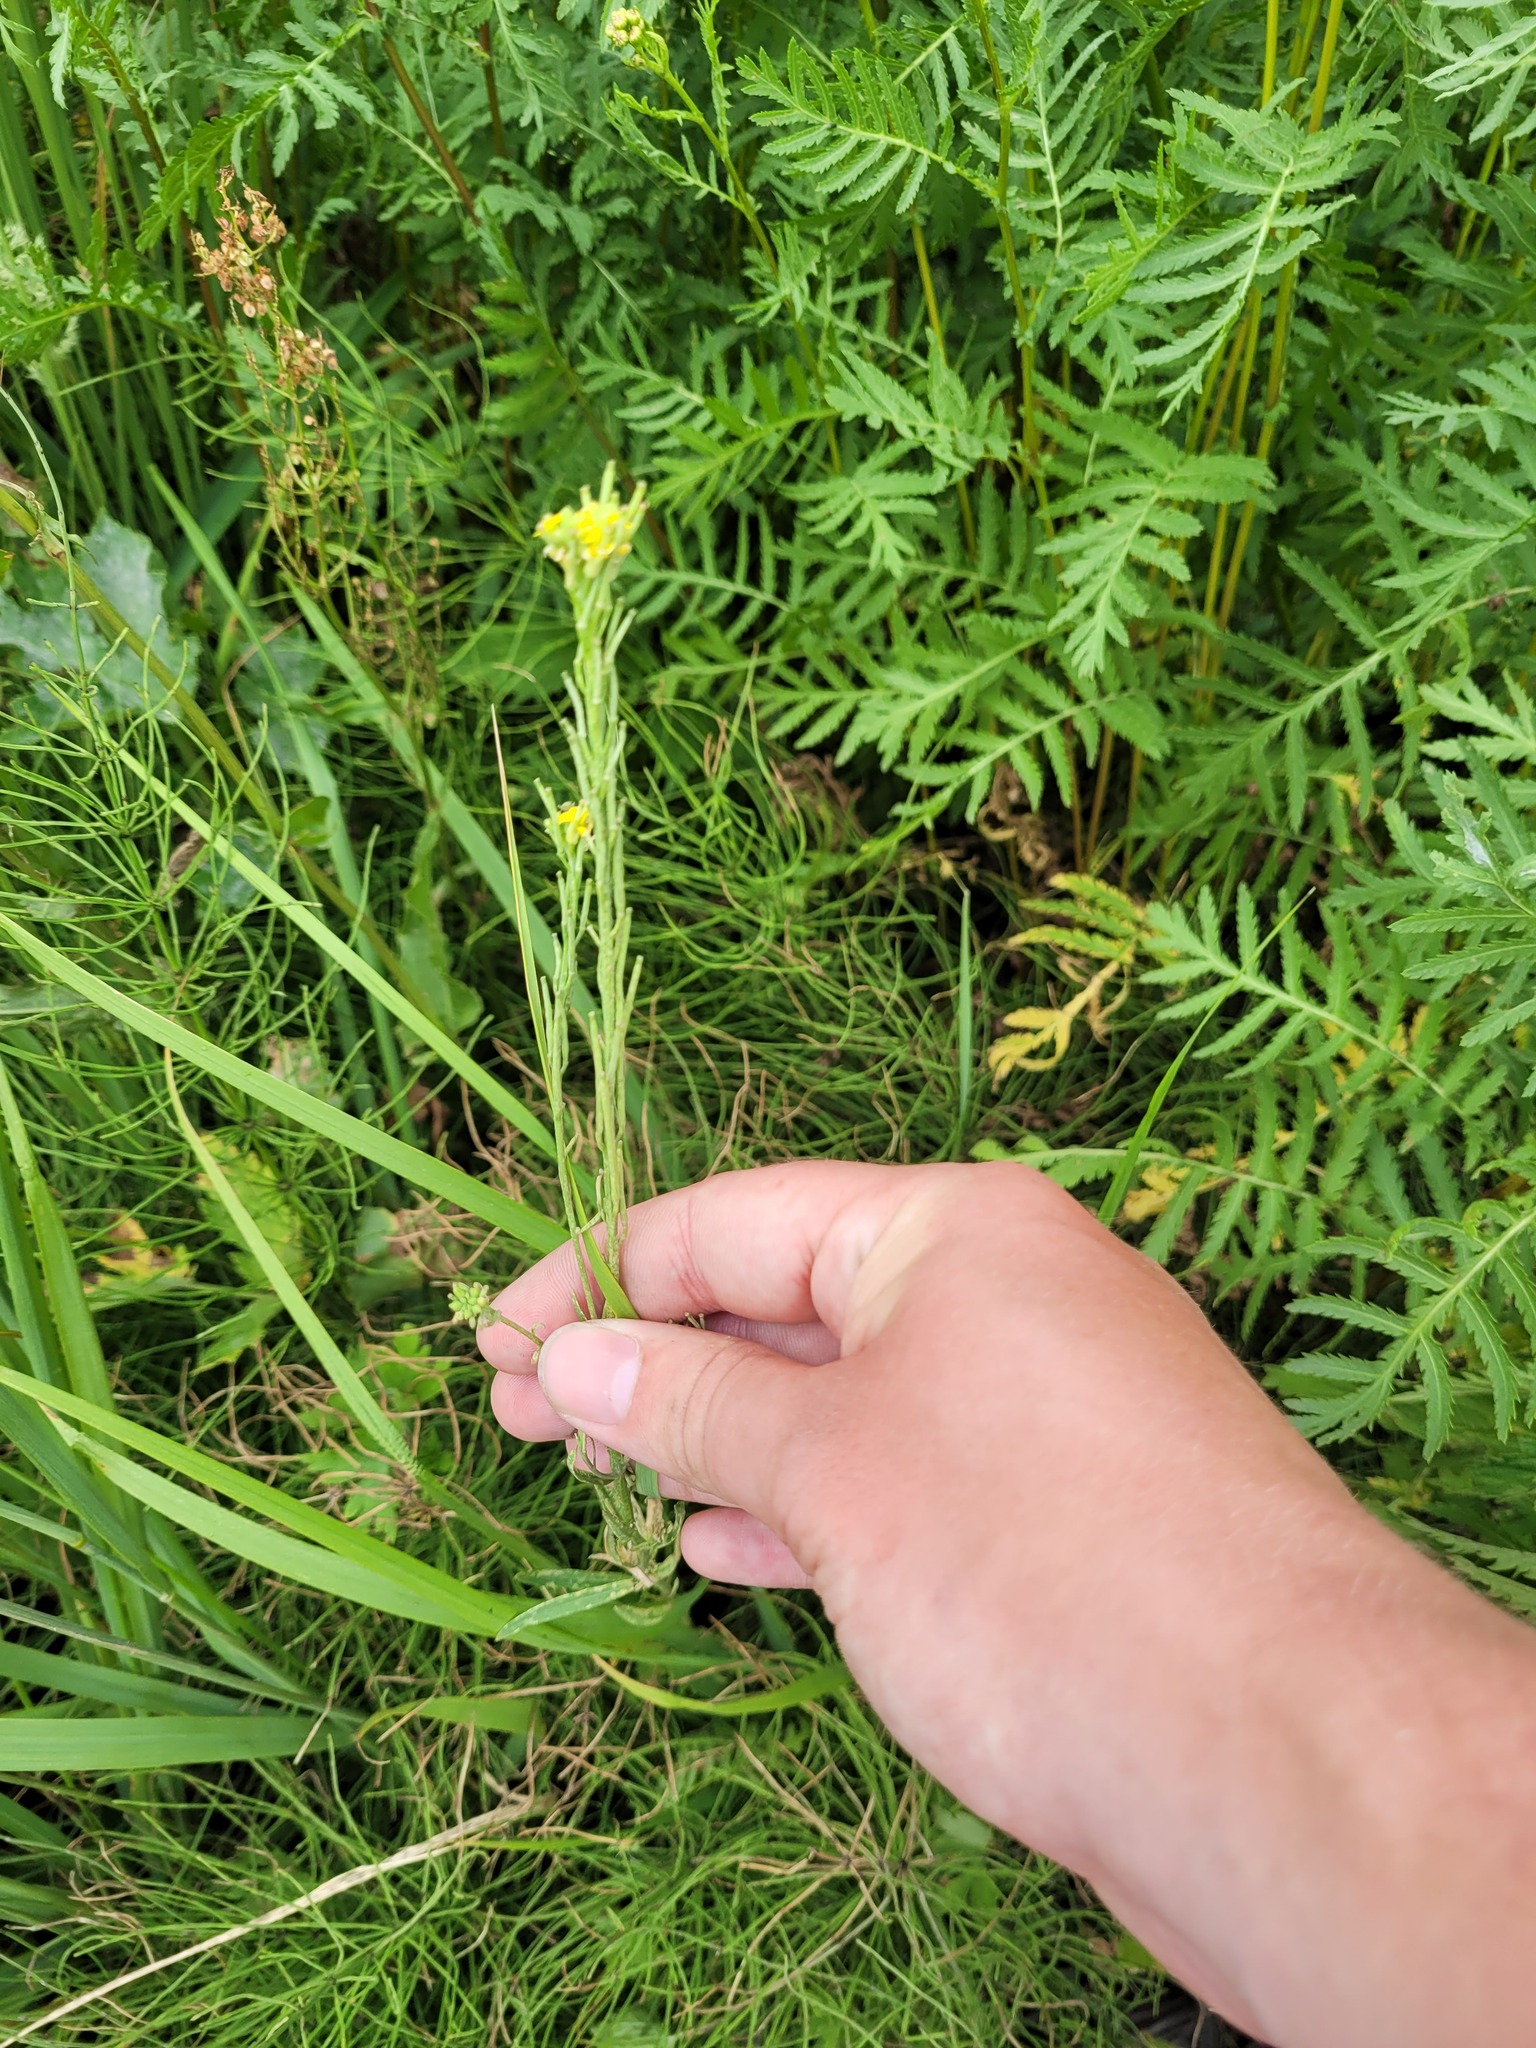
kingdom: Plantae
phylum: Tracheophyta
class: Magnoliopsida
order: Brassicales
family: Brassicaceae
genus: Erysimum
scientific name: Erysimum hieraciifolium
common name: European wallflower
